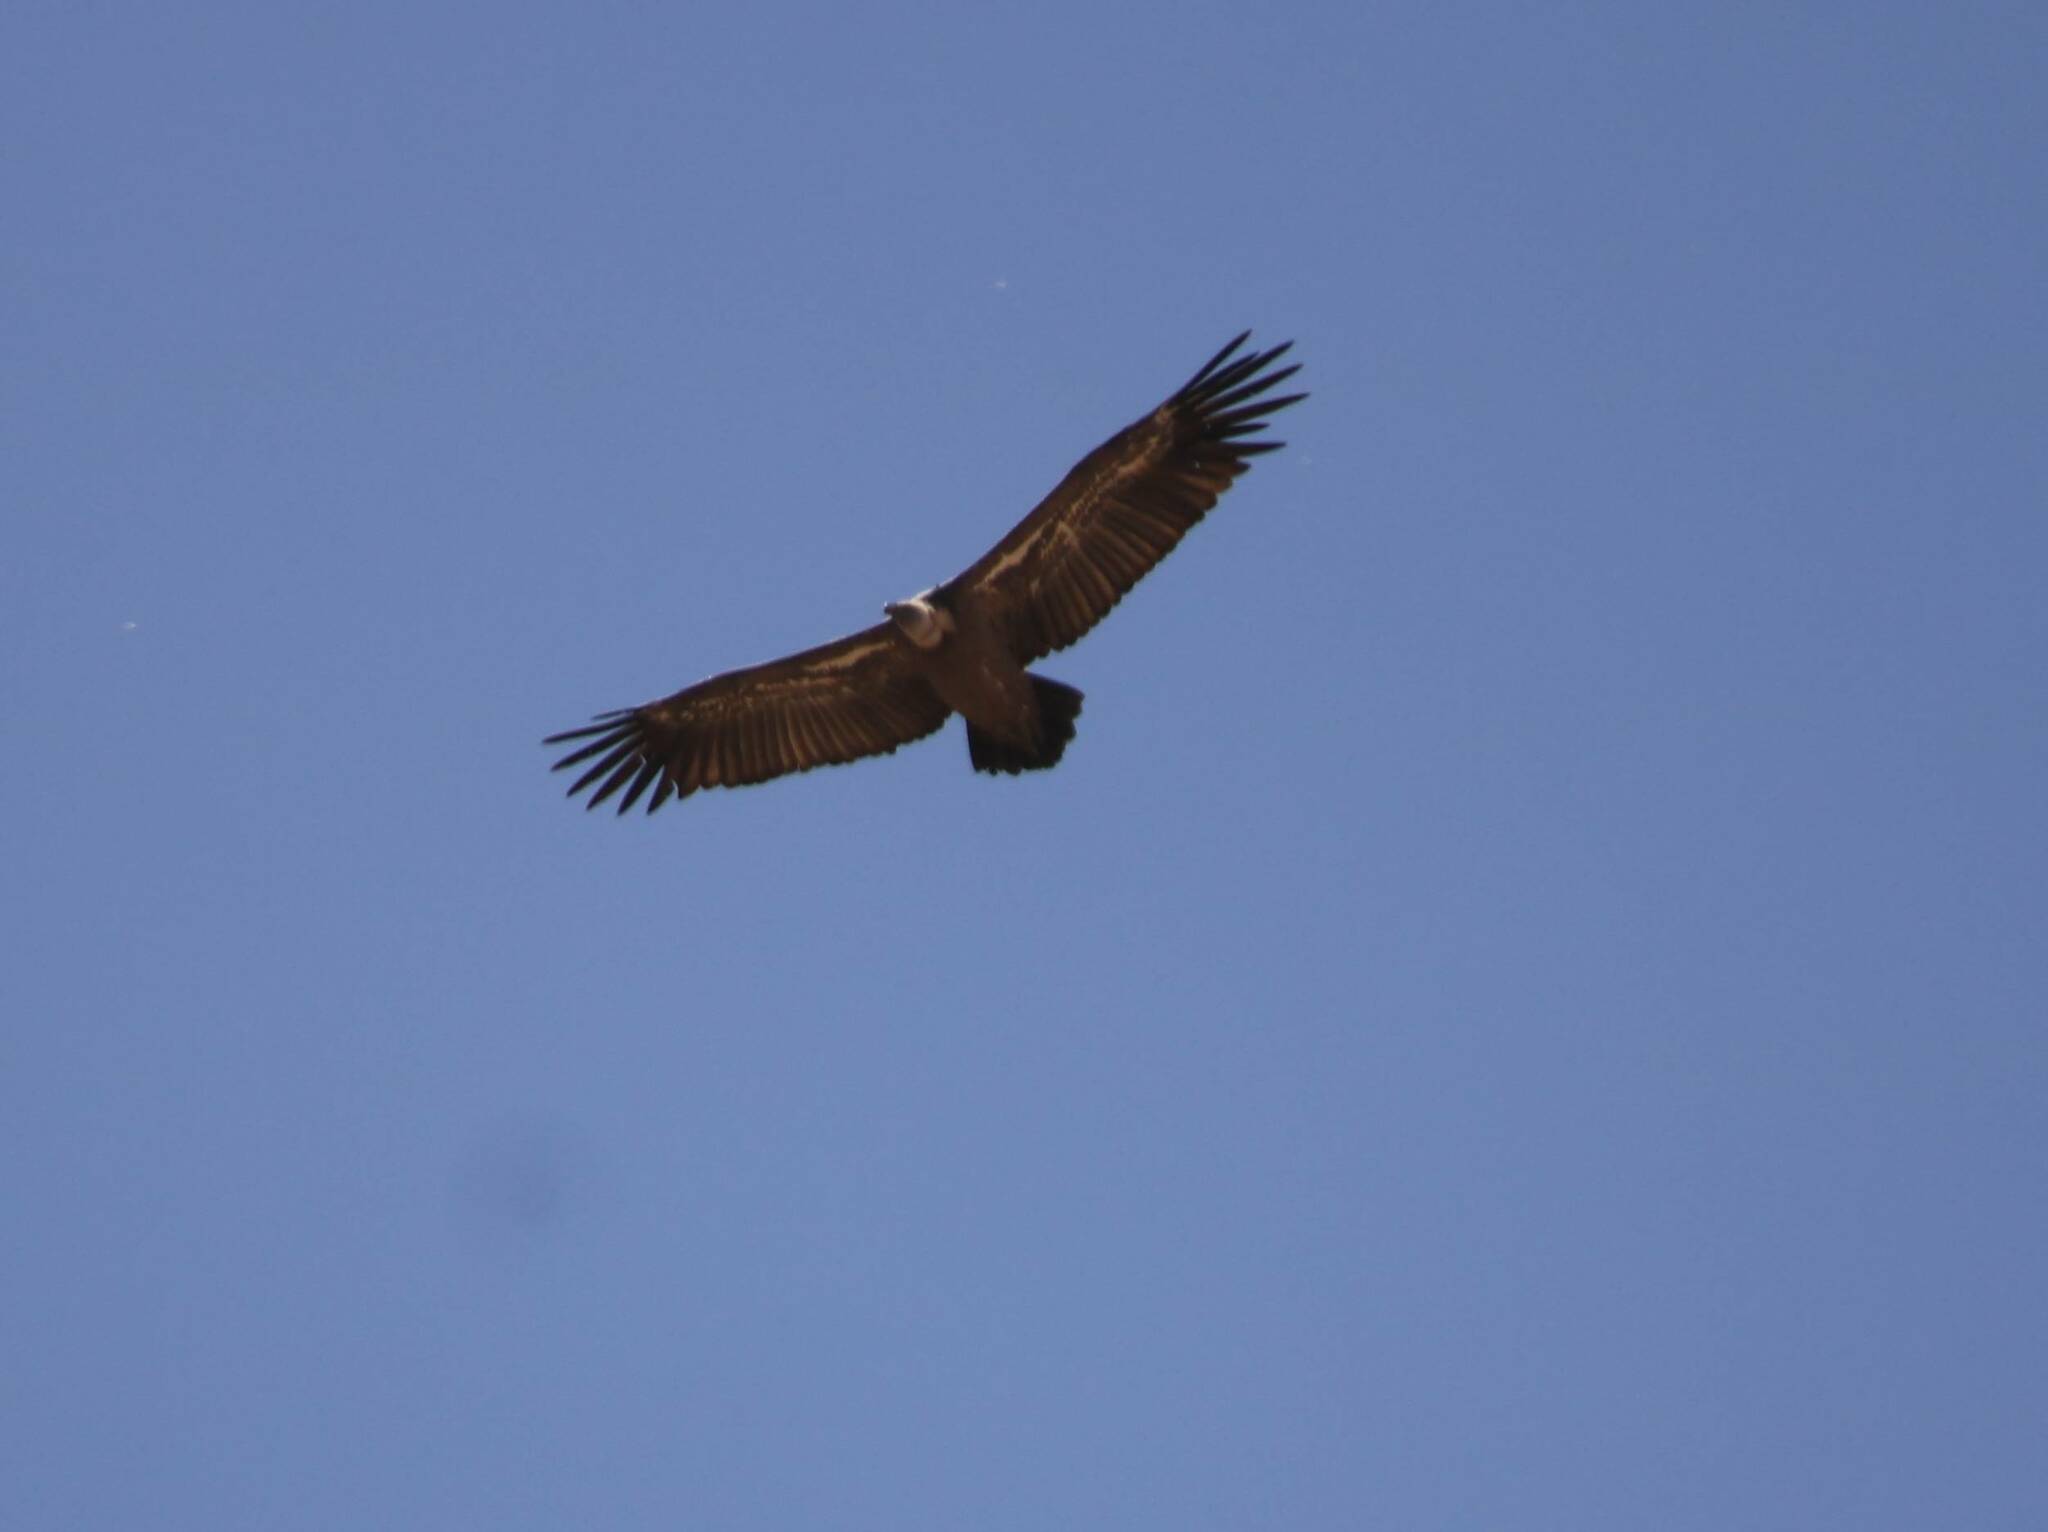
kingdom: Animalia
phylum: Chordata
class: Aves
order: Accipitriformes
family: Accipitridae
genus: Gyps
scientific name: Gyps fulvus
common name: Griffon vulture
